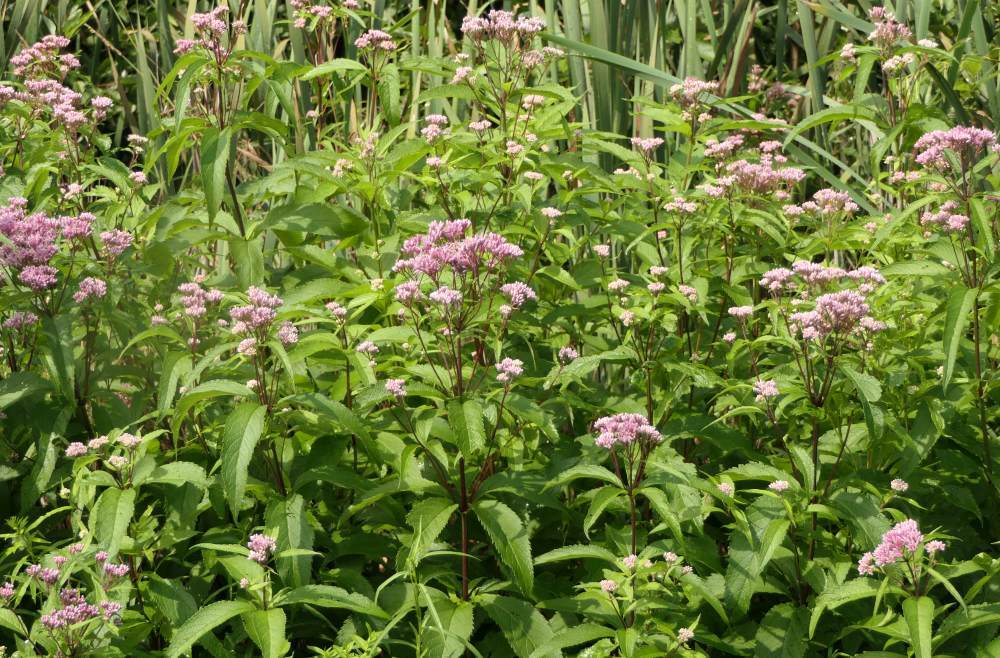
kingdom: Plantae
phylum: Tracheophyta
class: Magnoliopsida
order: Asterales
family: Asteraceae
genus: Eutrochium
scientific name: Eutrochium maculatum
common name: Spotted joe pye weed
